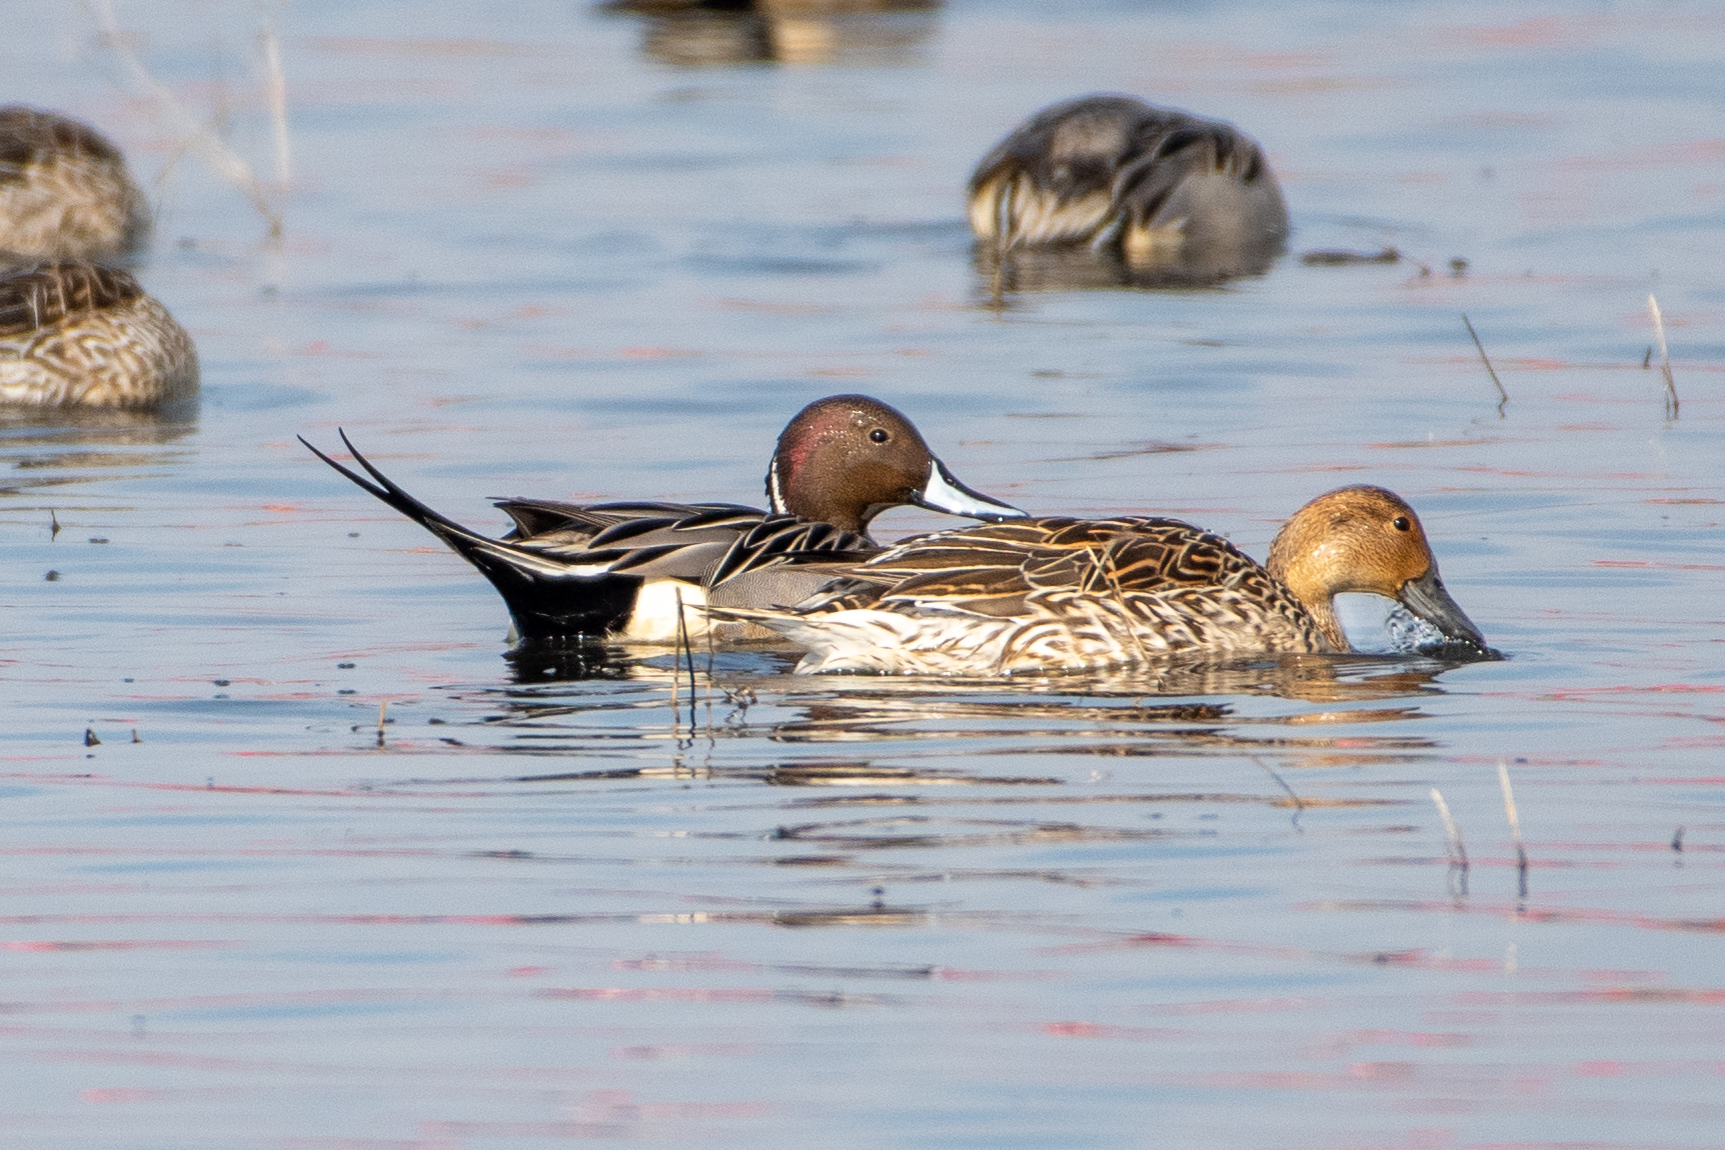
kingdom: Animalia
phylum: Chordata
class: Aves
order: Anseriformes
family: Anatidae
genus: Anas
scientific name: Anas acuta
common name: Northern pintail
